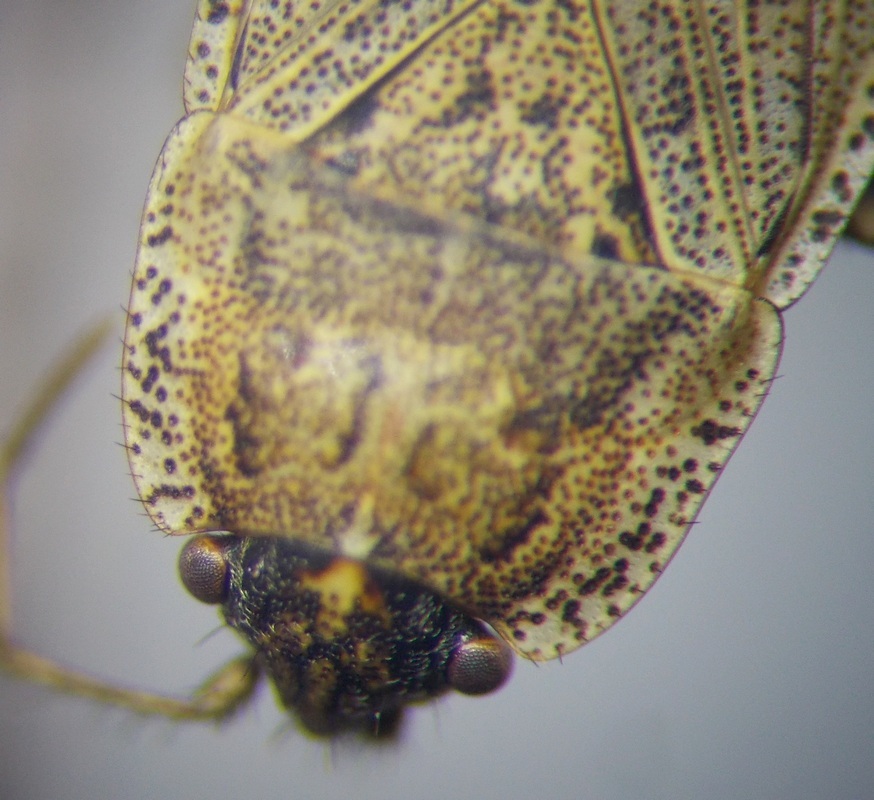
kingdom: Animalia
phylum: Arthropoda
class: Insecta
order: Hemiptera
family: Rhyparochromidae
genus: Emblethis
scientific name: Emblethis ciliatus
